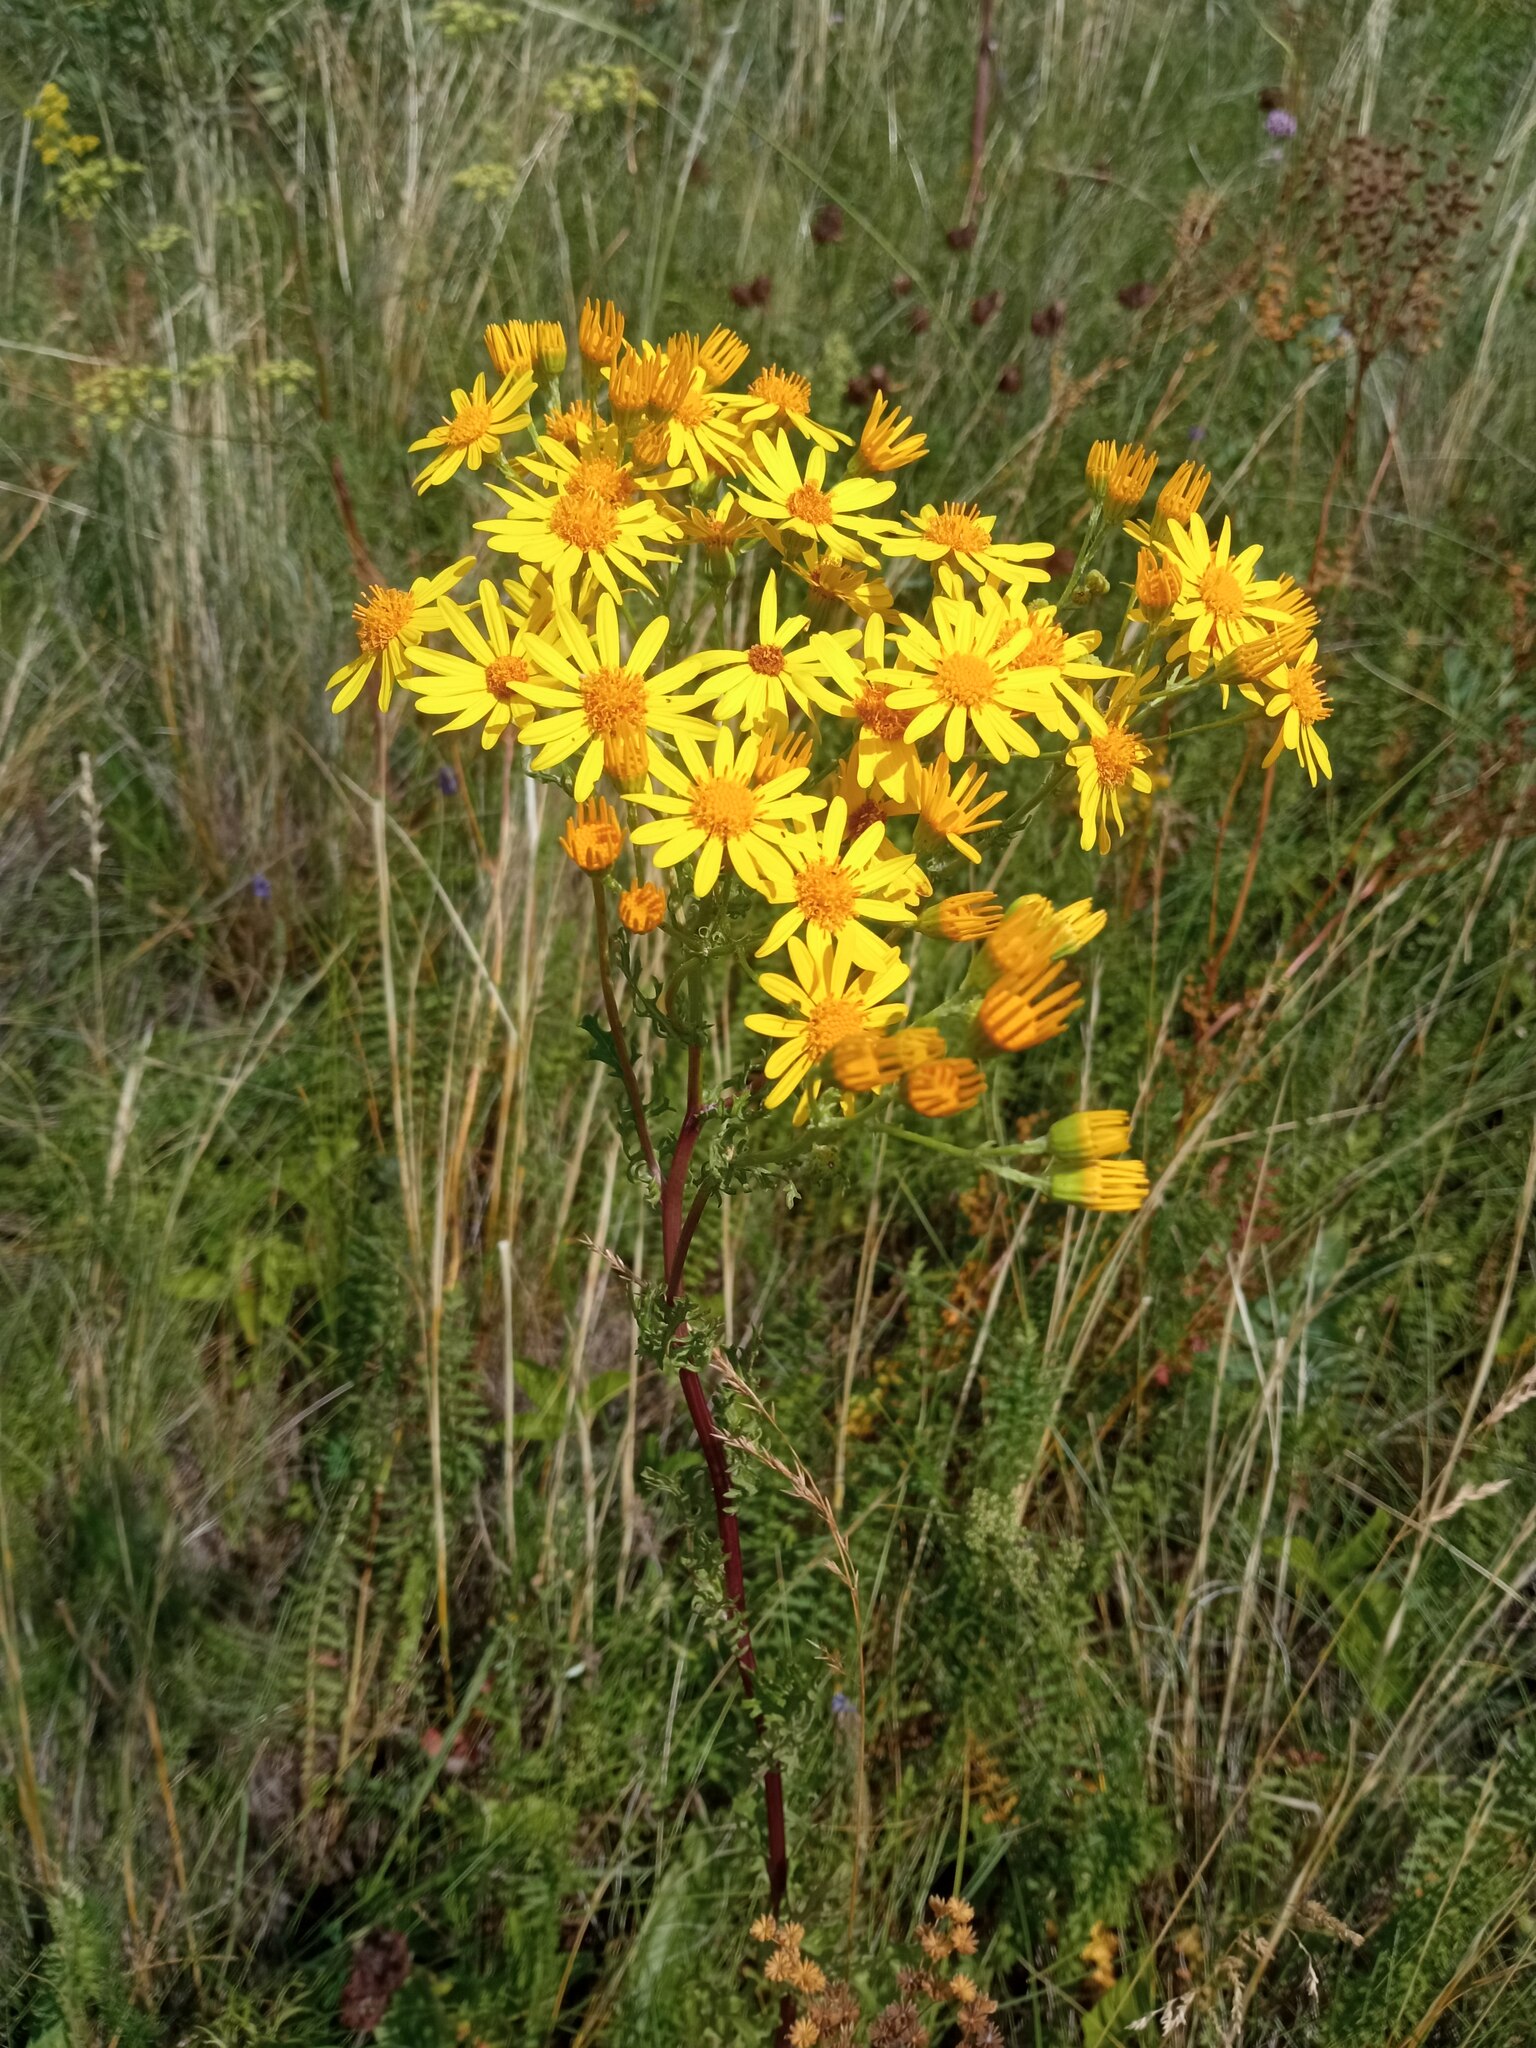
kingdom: Plantae
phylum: Tracheophyta
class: Magnoliopsida
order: Asterales
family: Asteraceae
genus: Jacobaea
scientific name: Jacobaea vulgaris
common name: Stinking willie
